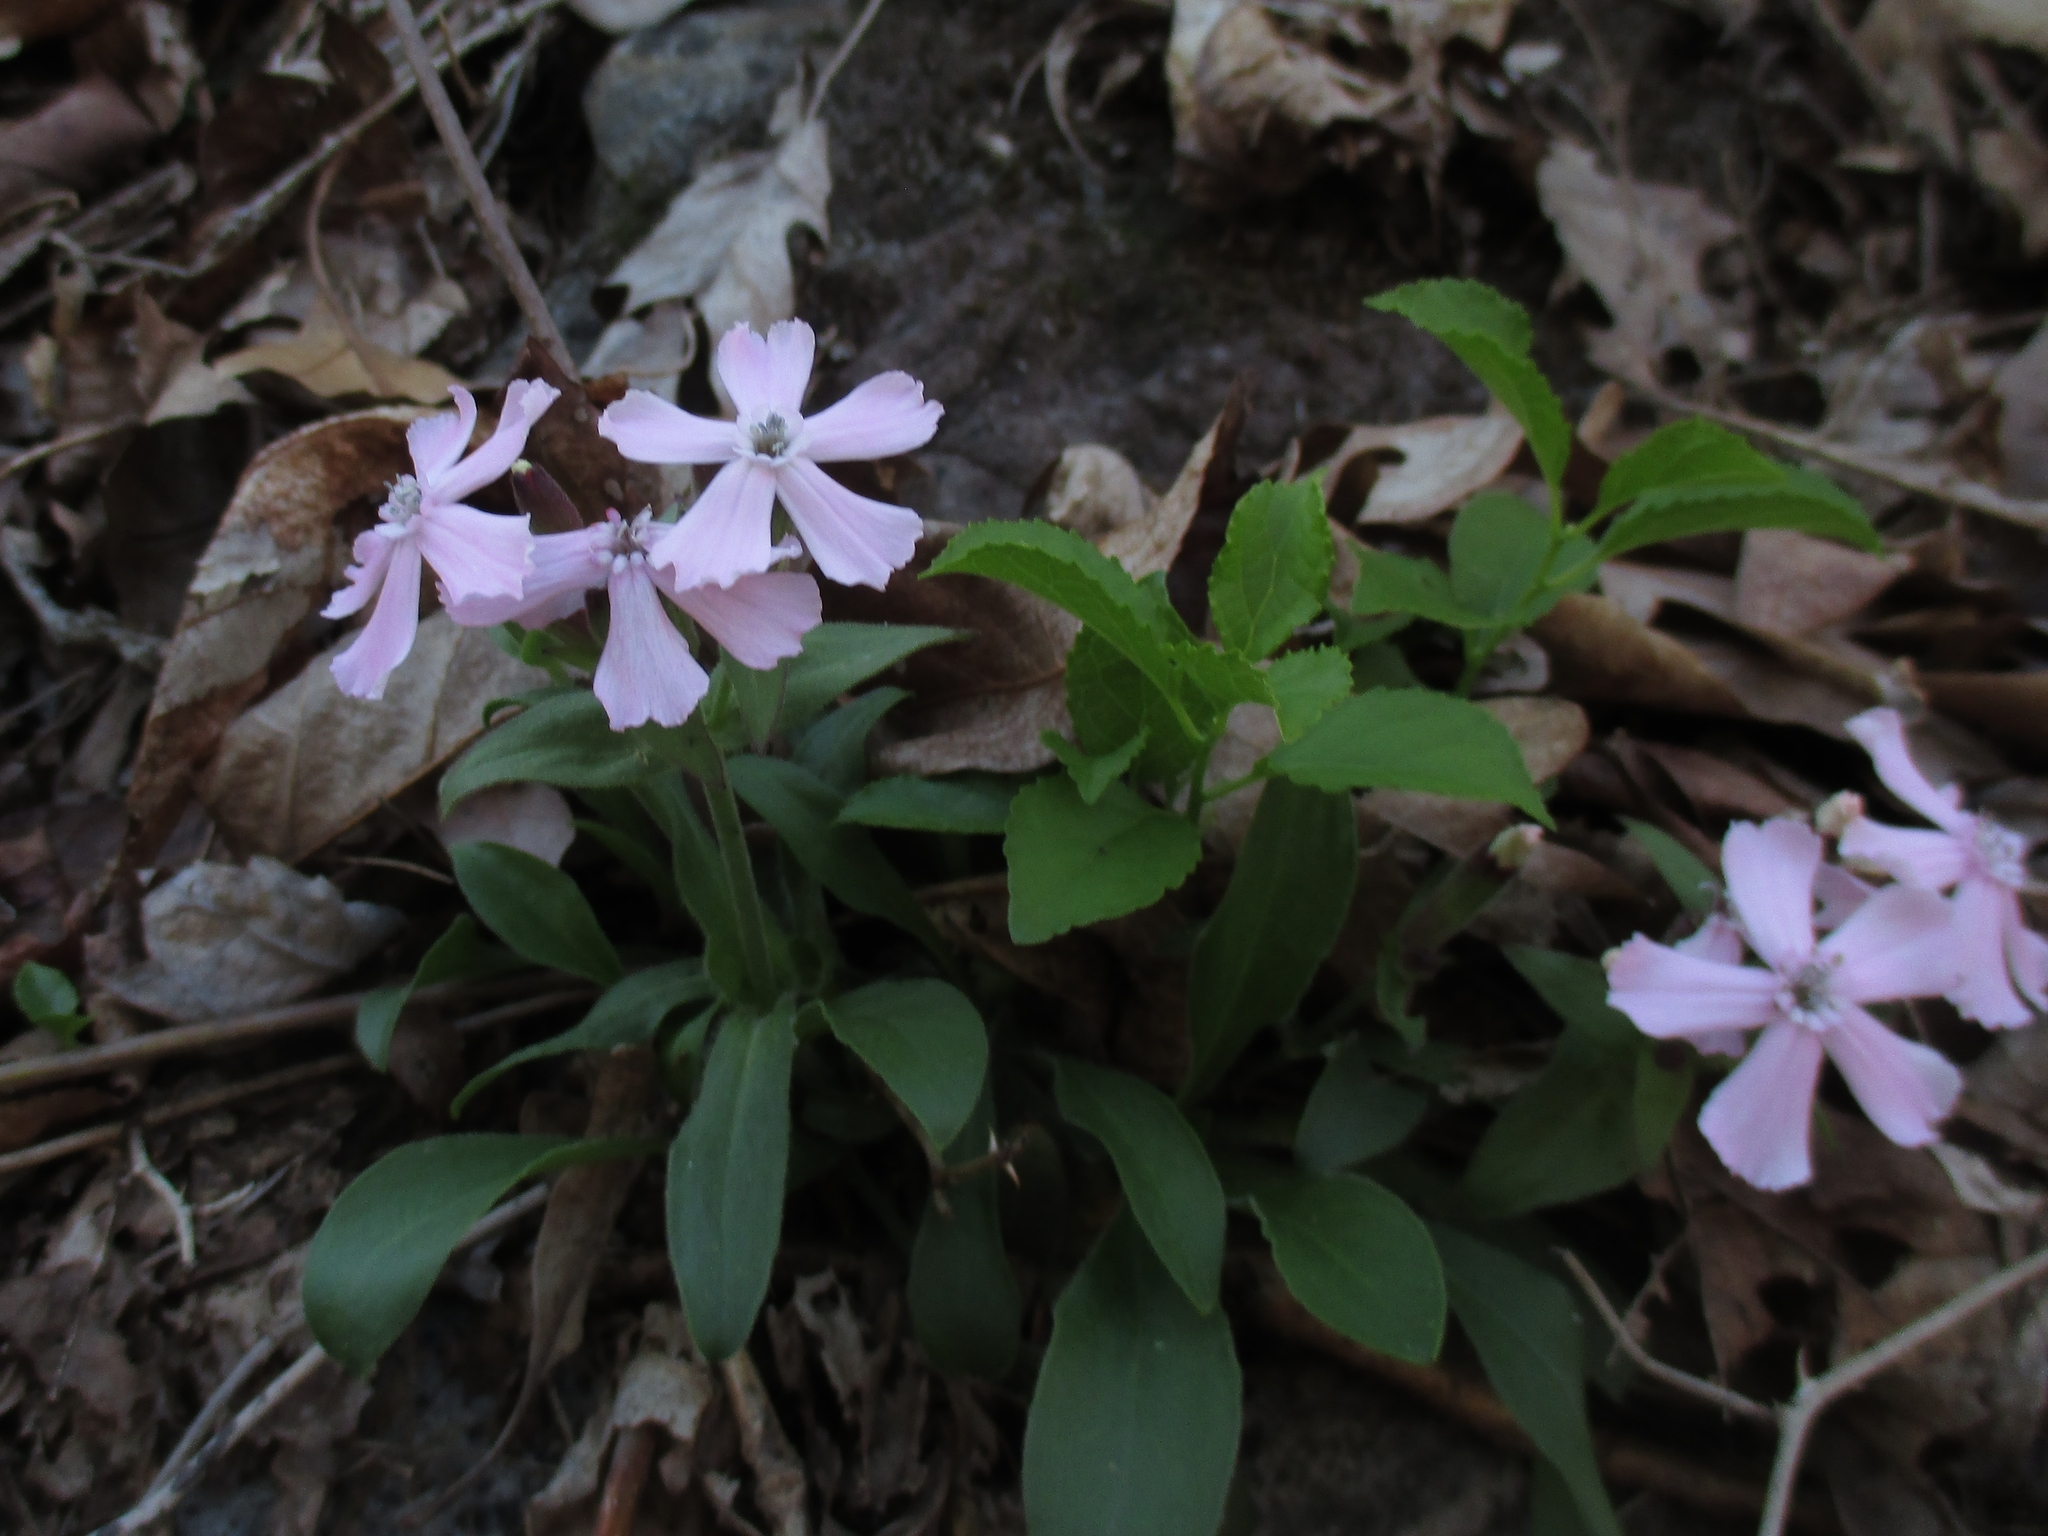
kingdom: Plantae
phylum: Tracheophyta
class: Magnoliopsida
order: Caryophyllales
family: Caryophyllaceae
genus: Silene
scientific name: Silene caroliniana
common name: Sticky catchfly
